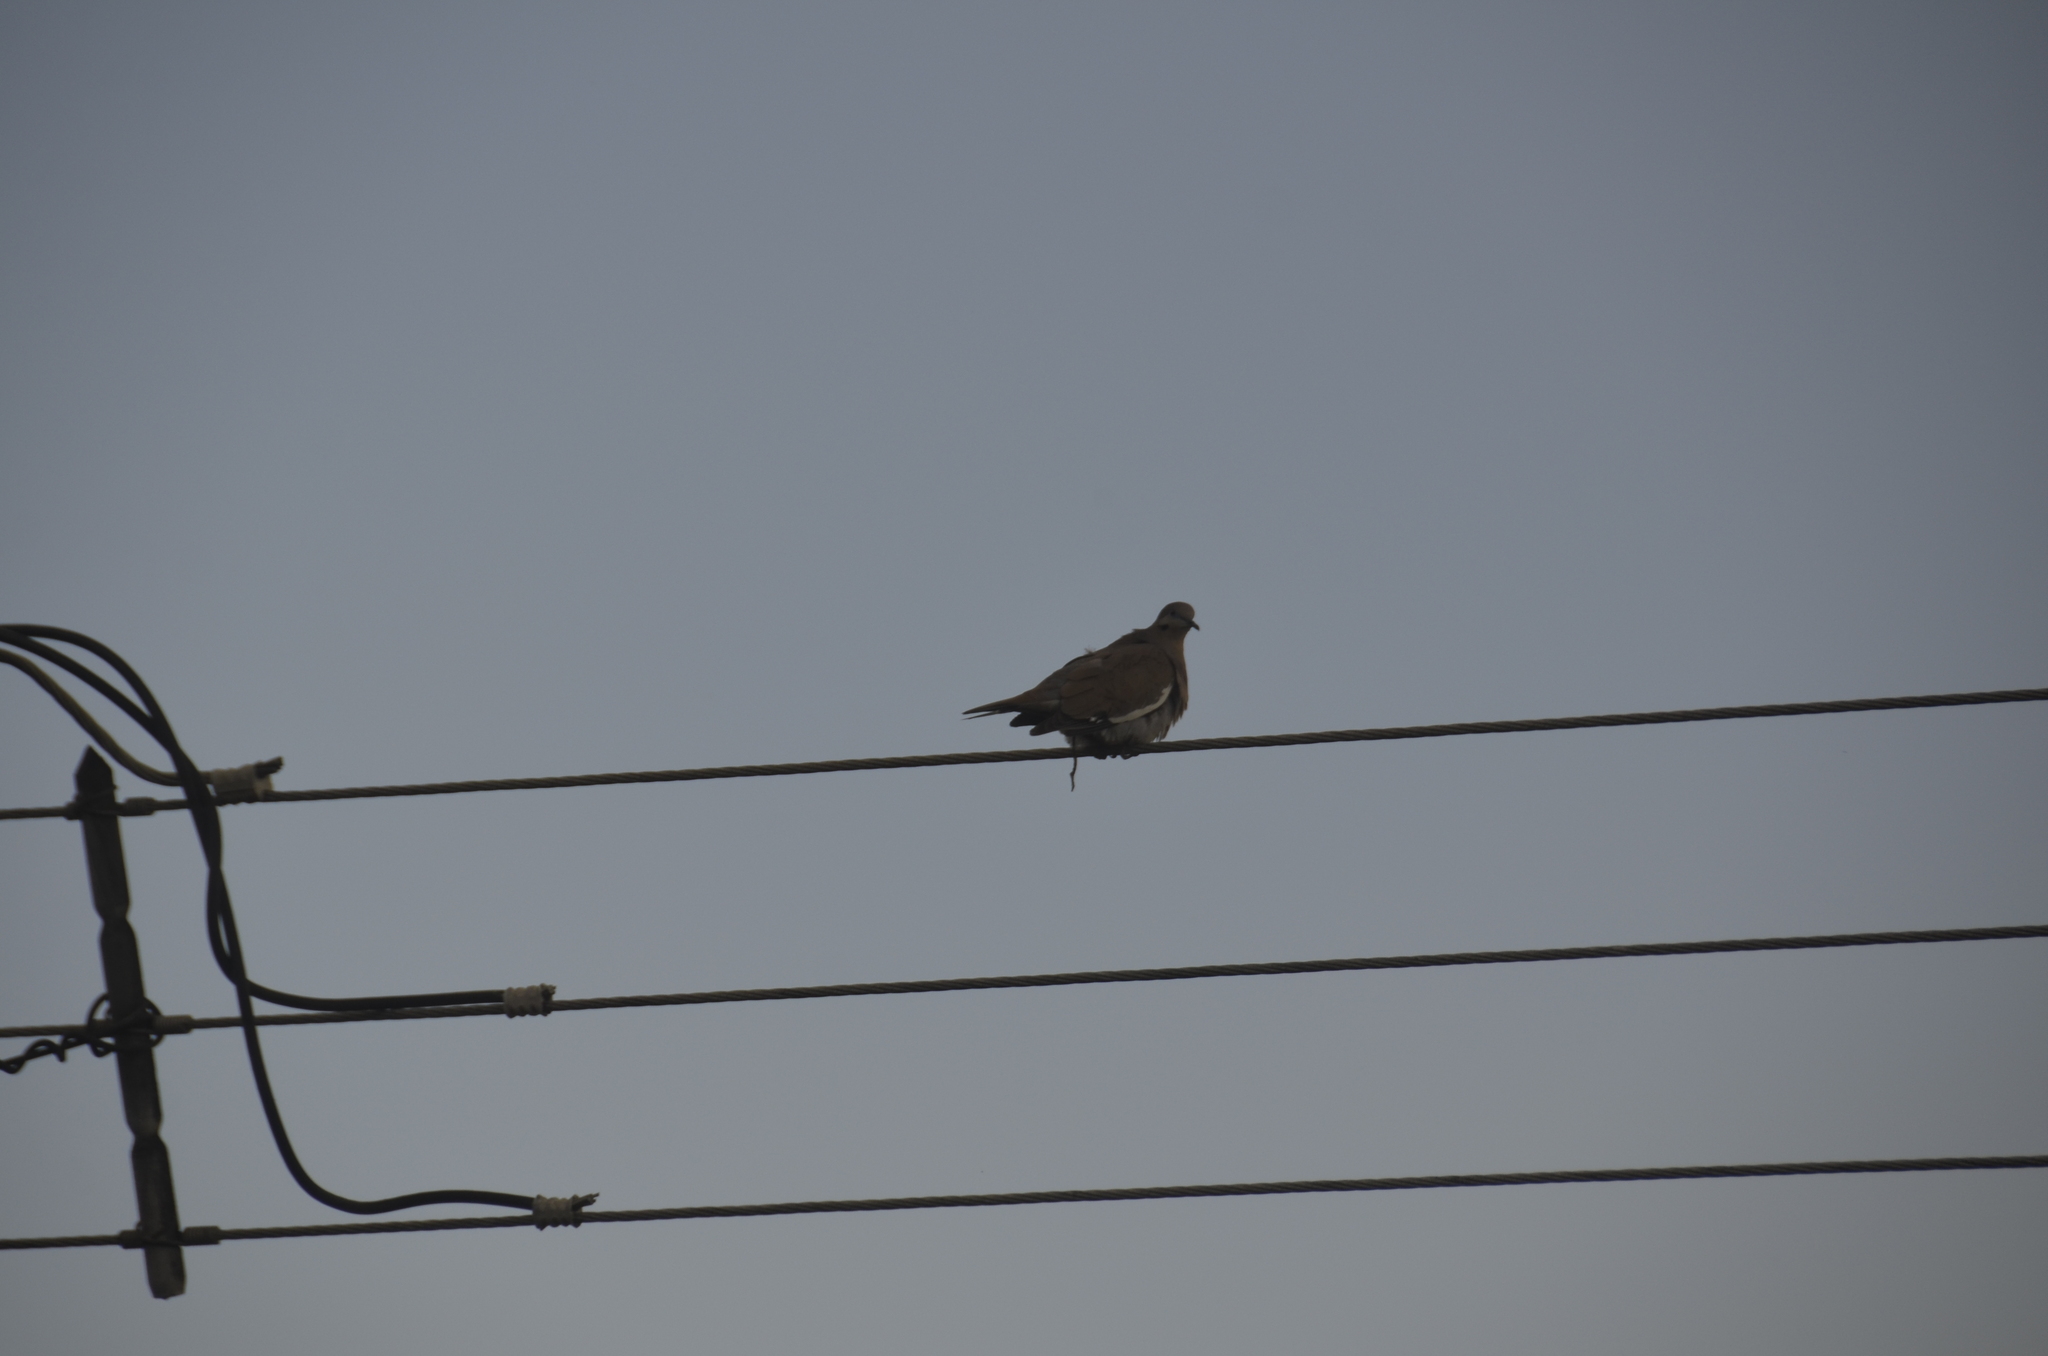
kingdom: Animalia
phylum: Chordata
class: Aves
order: Columbiformes
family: Columbidae
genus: Zenaida
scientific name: Zenaida asiatica
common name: White-winged dove
